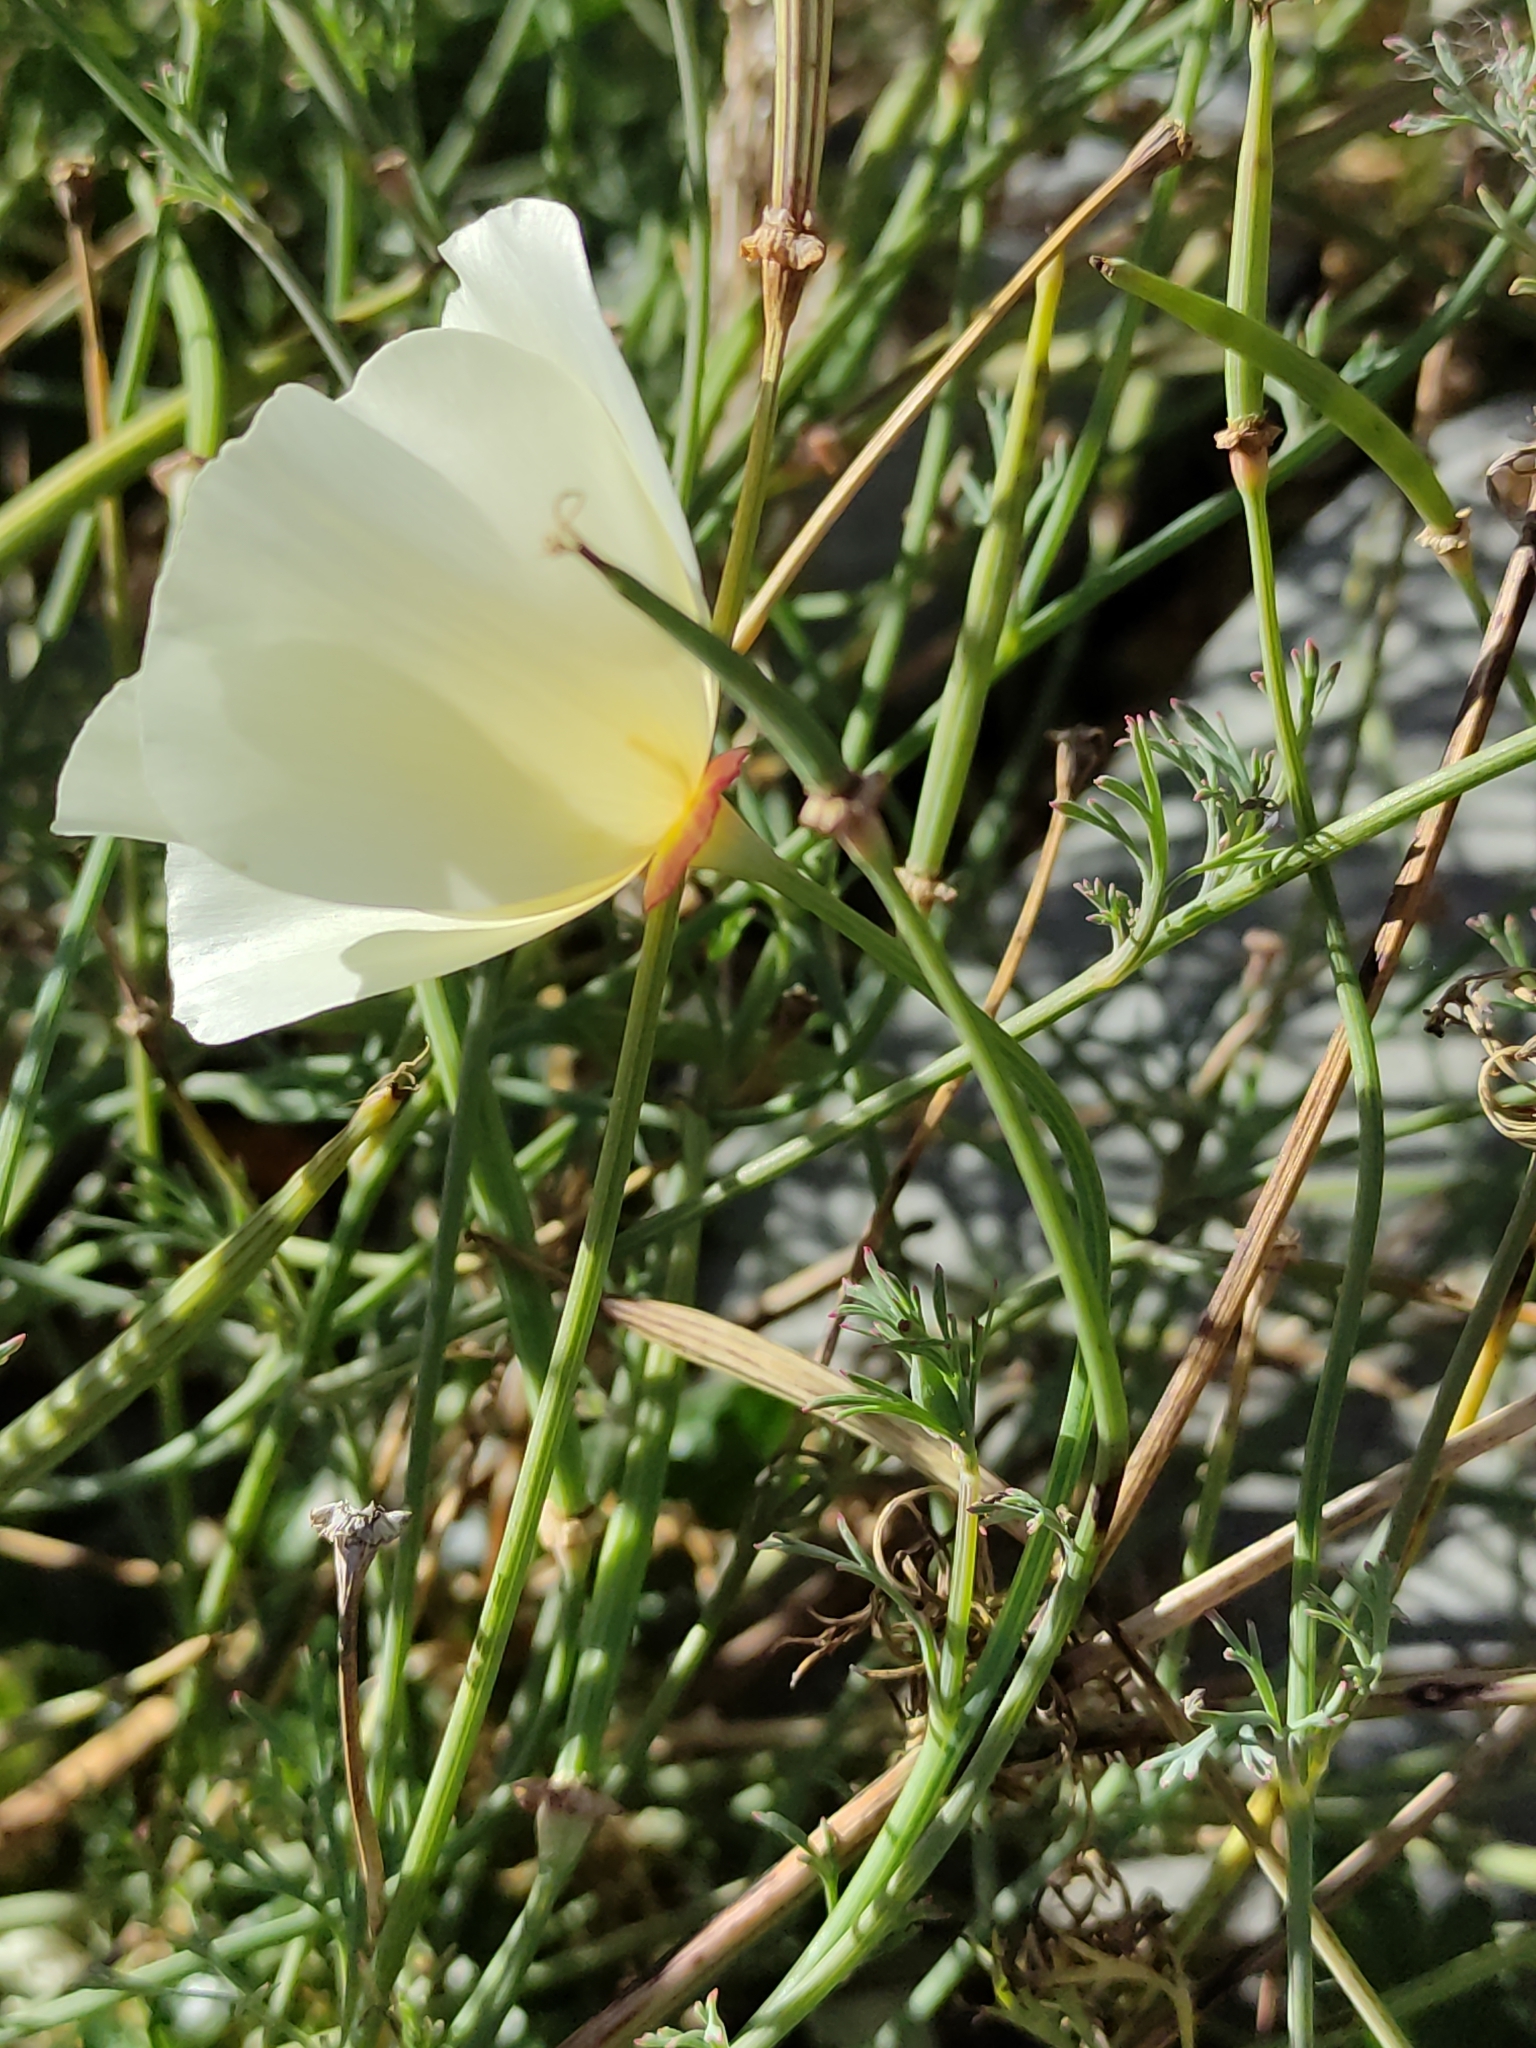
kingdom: Plantae
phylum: Tracheophyta
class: Magnoliopsida
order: Ranunculales
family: Papaveraceae
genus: Eschscholzia
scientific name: Eschscholzia californica
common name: California poppy
